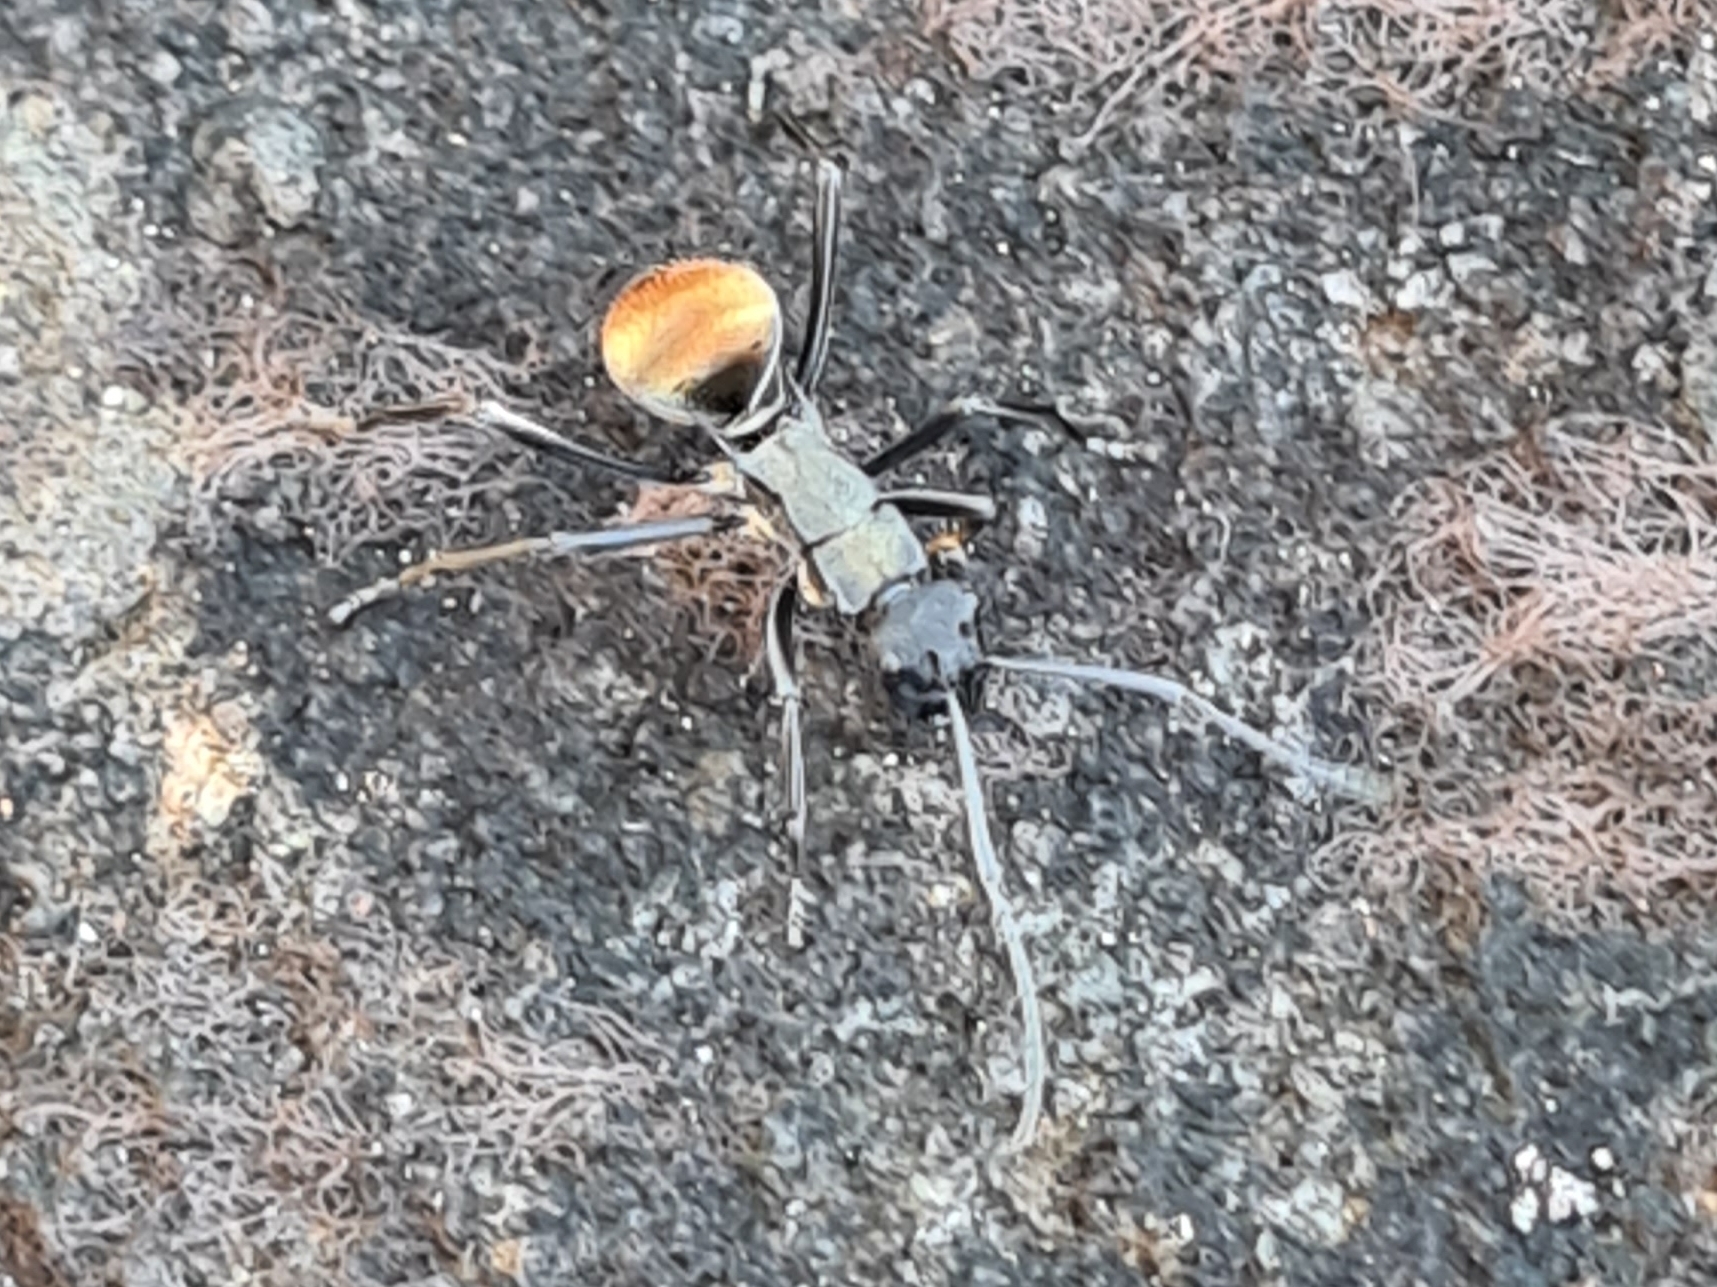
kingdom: Animalia
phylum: Arthropoda
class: Insecta
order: Hymenoptera
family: Formicidae
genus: Polyrhachis
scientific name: Polyrhachis ammon
